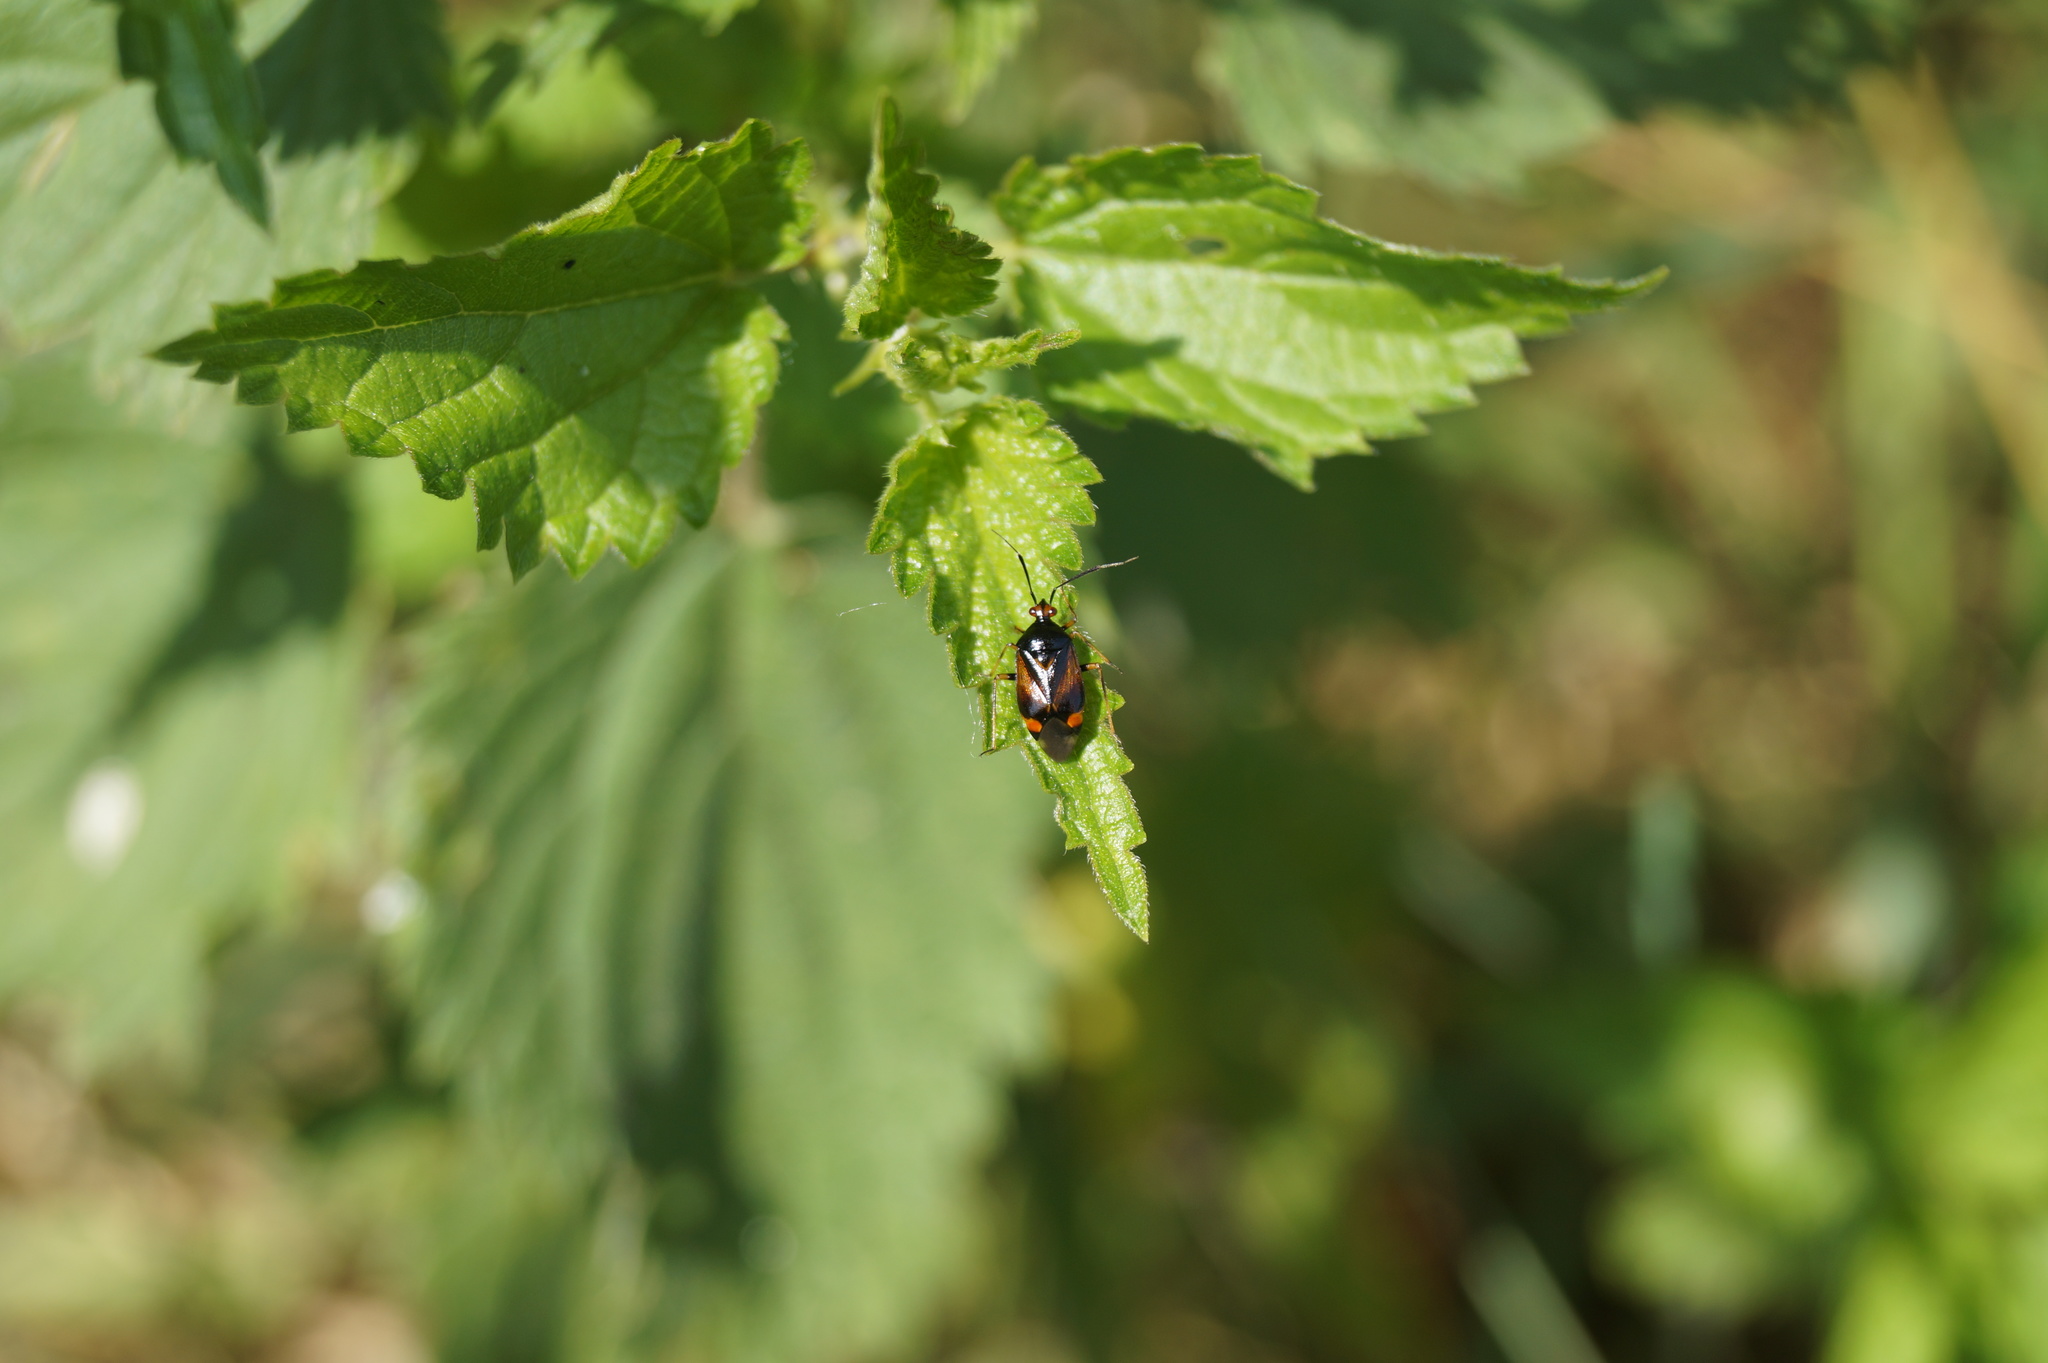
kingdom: Animalia
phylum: Arthropoda
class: Insecta
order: Hemiptera
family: Miridae
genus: Deraeocoris
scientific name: Deraeocoris ruber
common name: Plant bug
